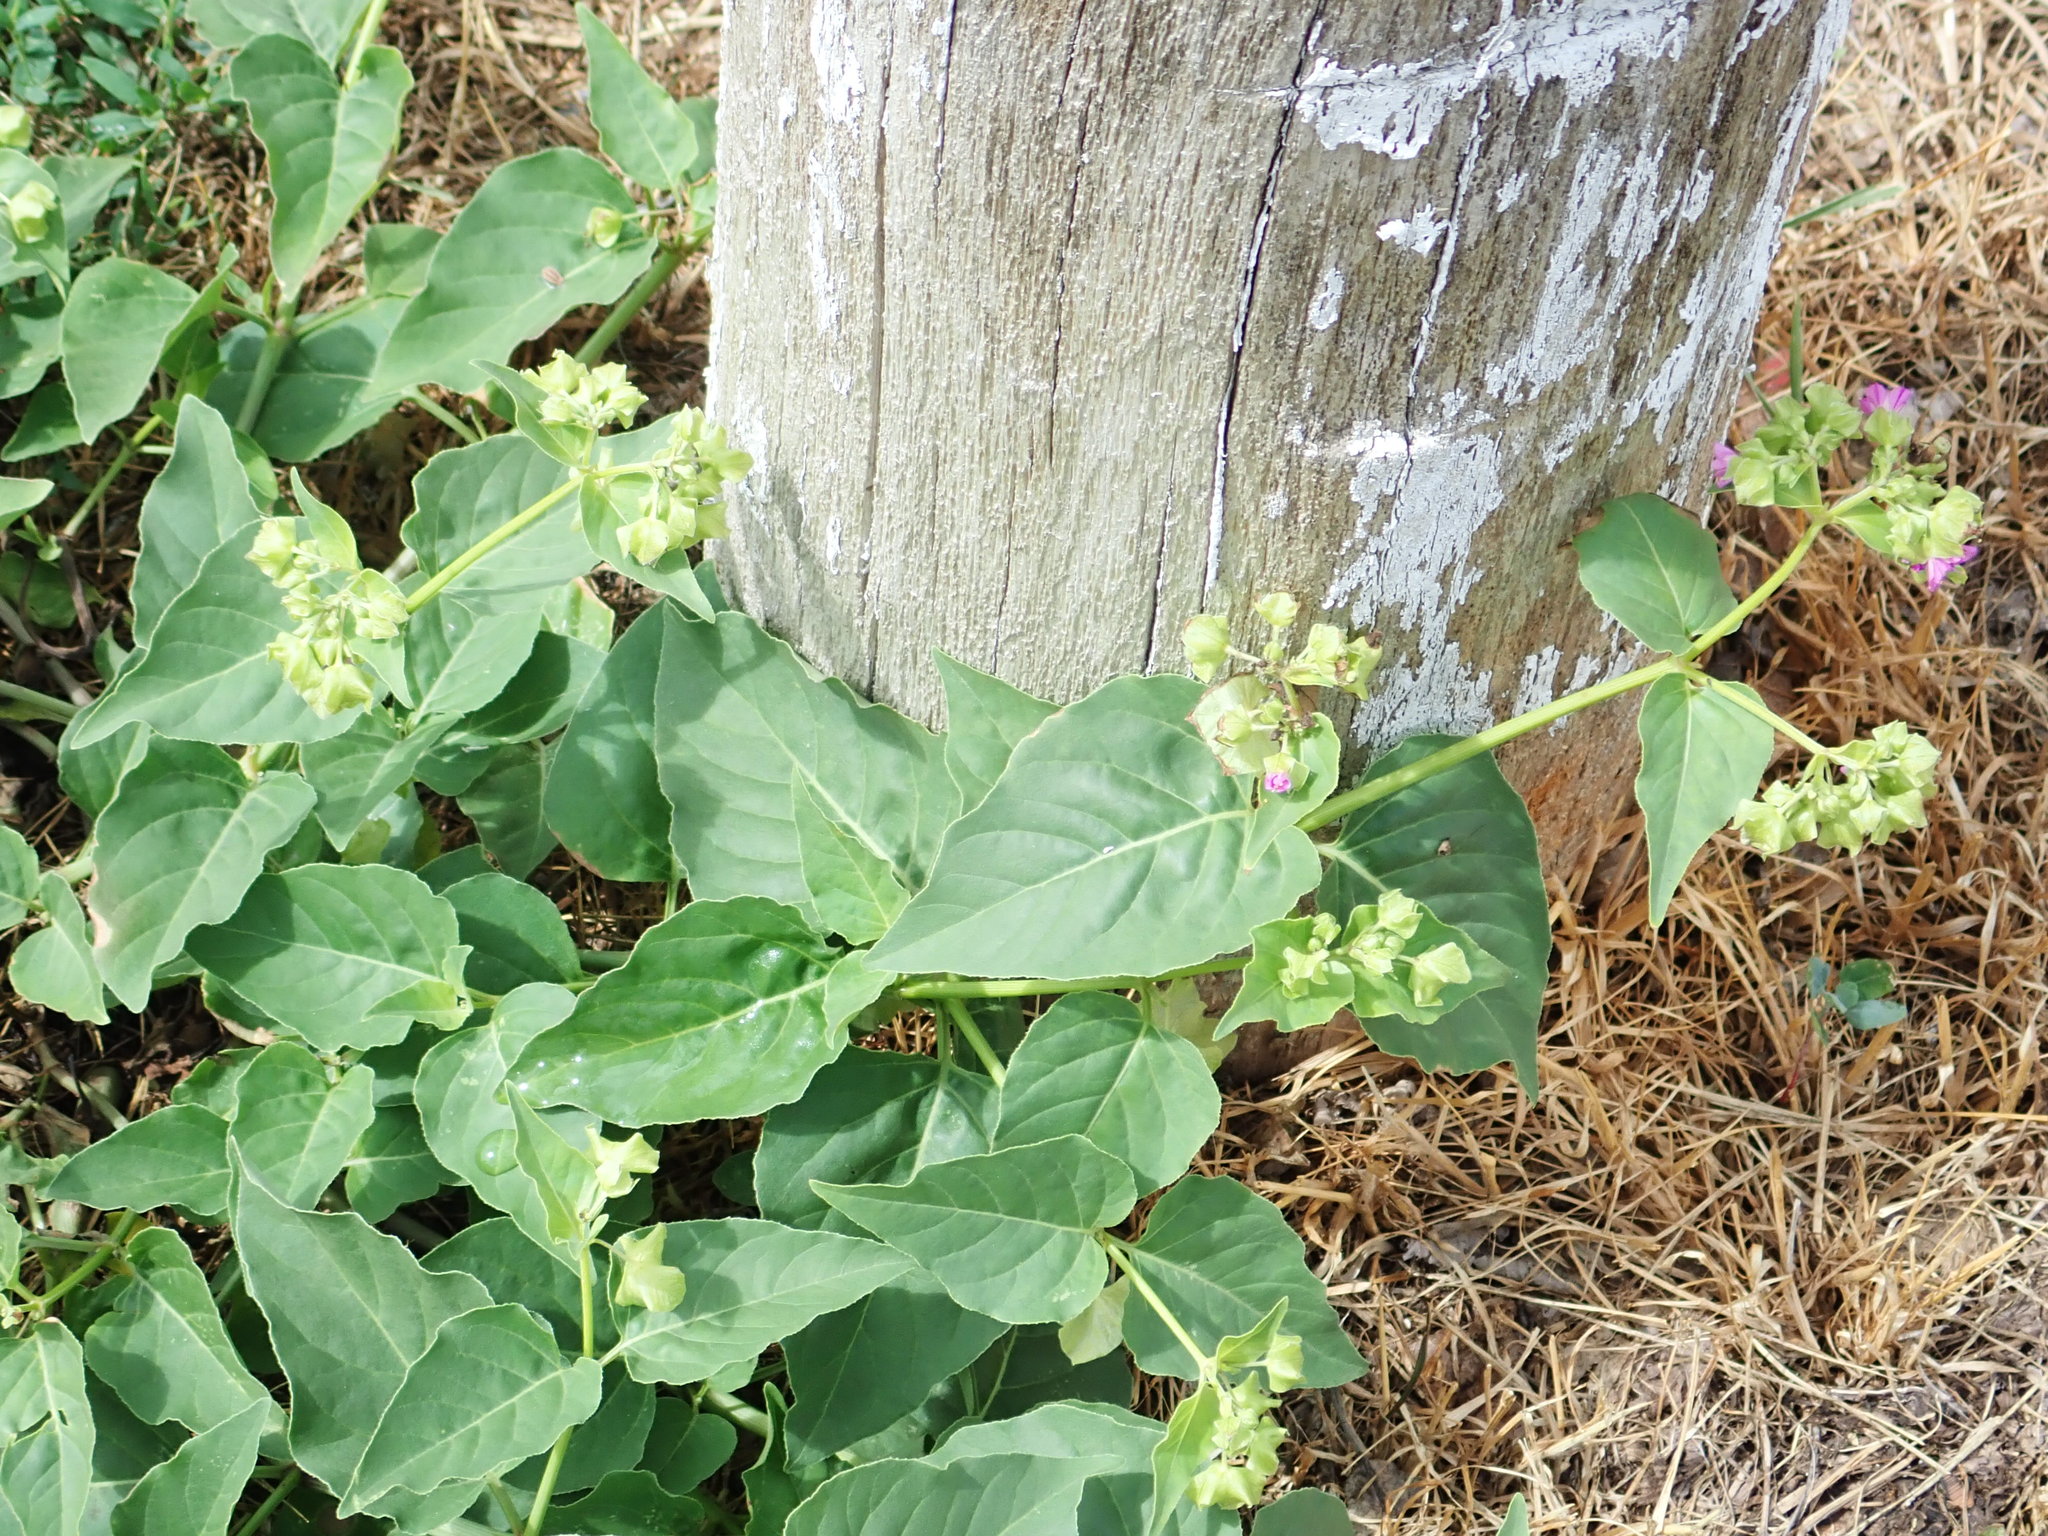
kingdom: Plantae
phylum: Tracheophyta
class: Magnoliopsida
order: Caryophyllales
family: Nyctaginaceae
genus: Mirabilis
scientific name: Mirabilis nyctaginea
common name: Umbrella wort
